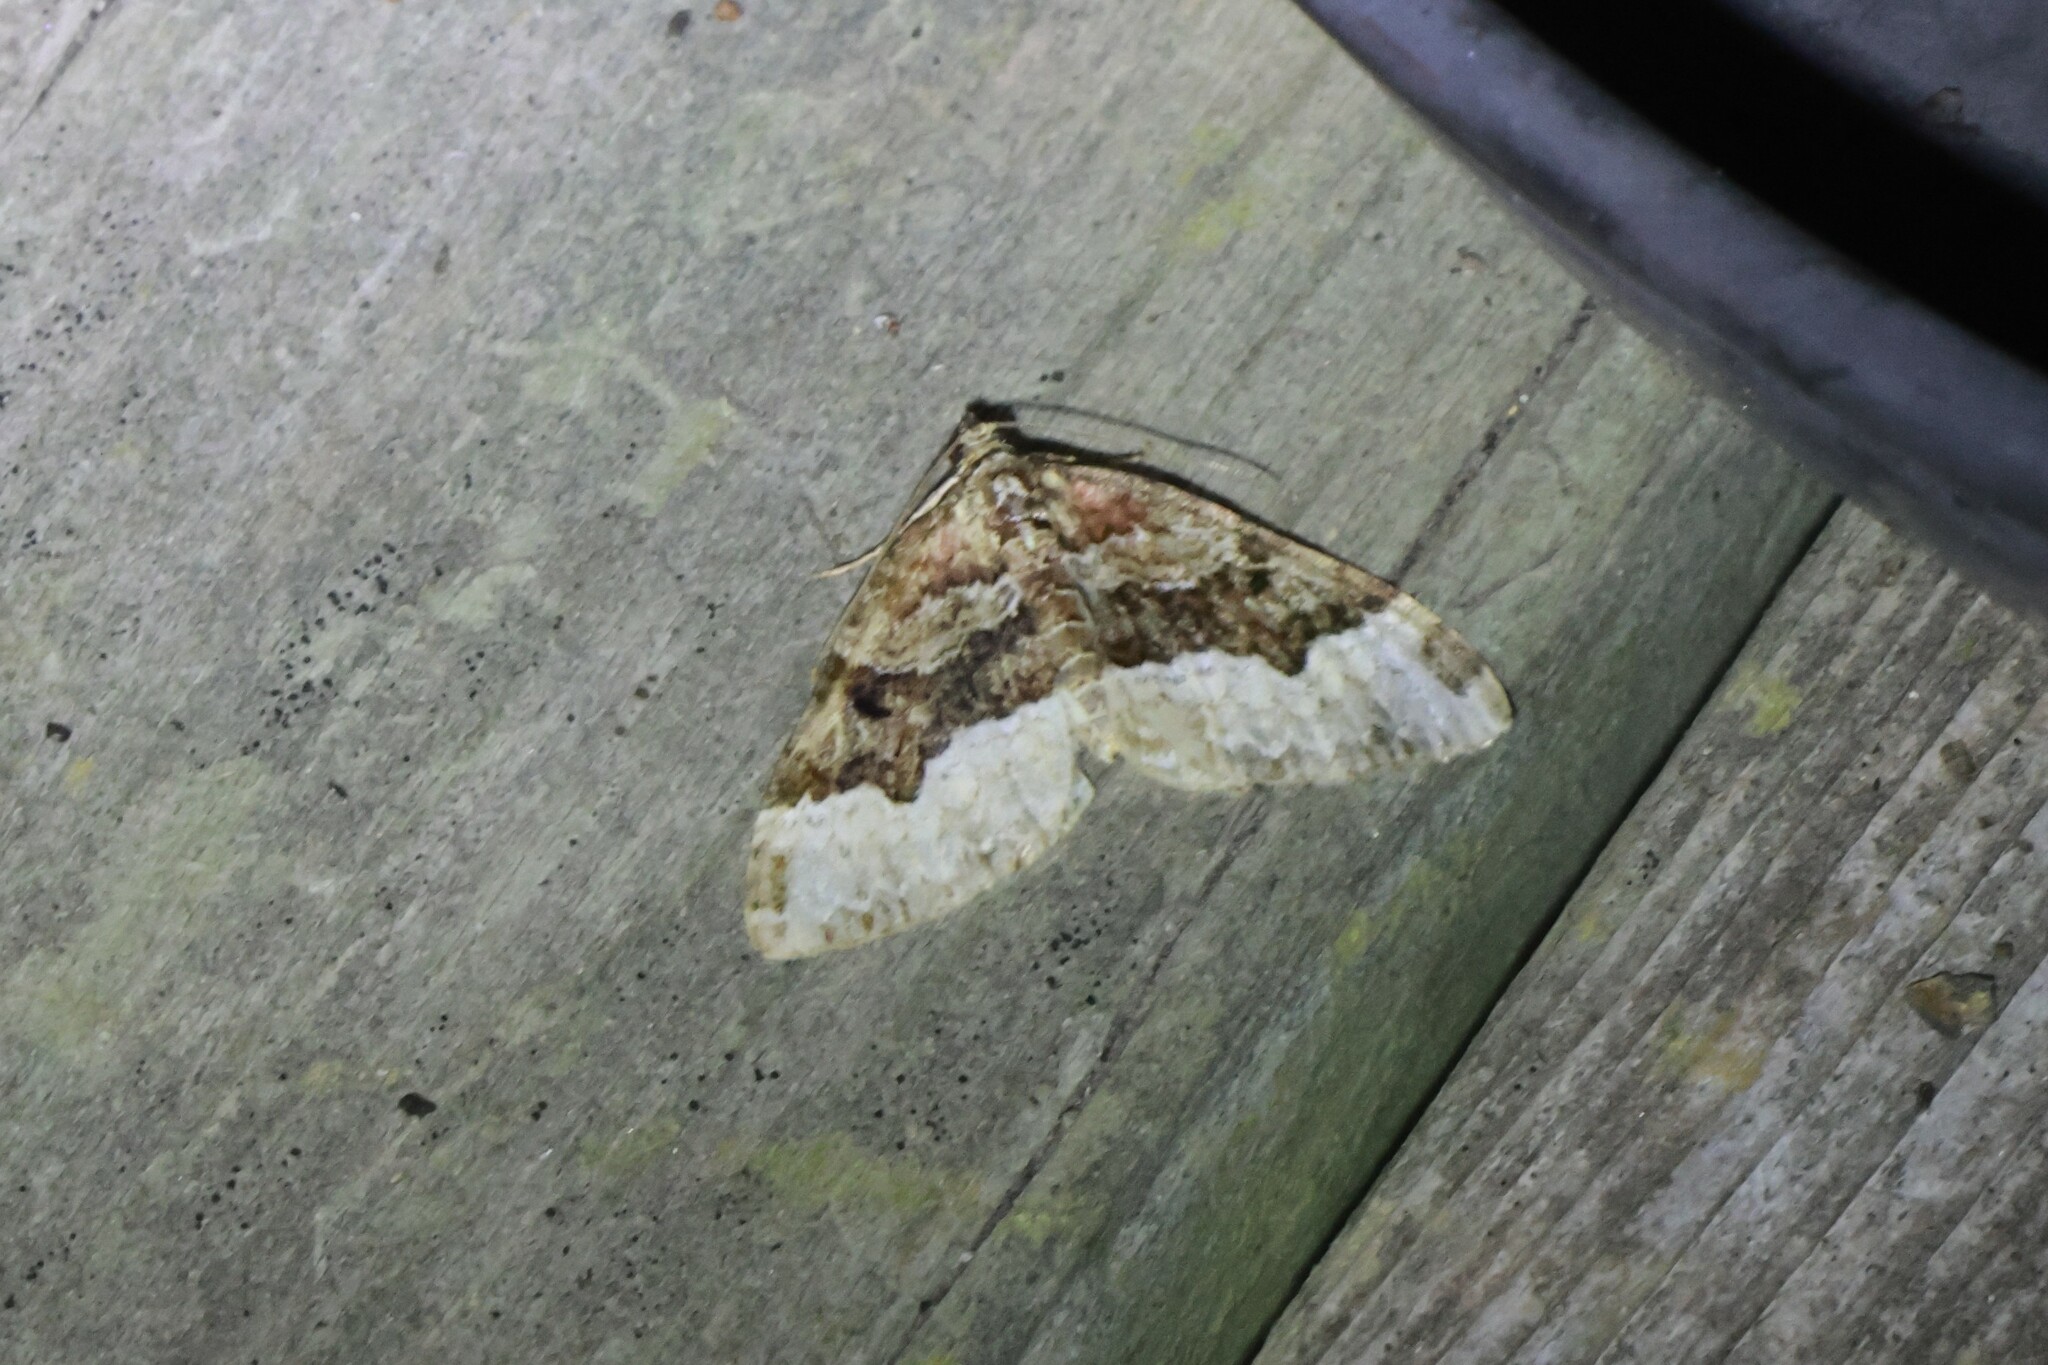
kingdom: Animalia
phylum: Arthropoda
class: Insecta
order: Lepidoptera
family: Geometridae
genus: Euphyia
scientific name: Euphyia intermediata
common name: Sharp-angled carpet
